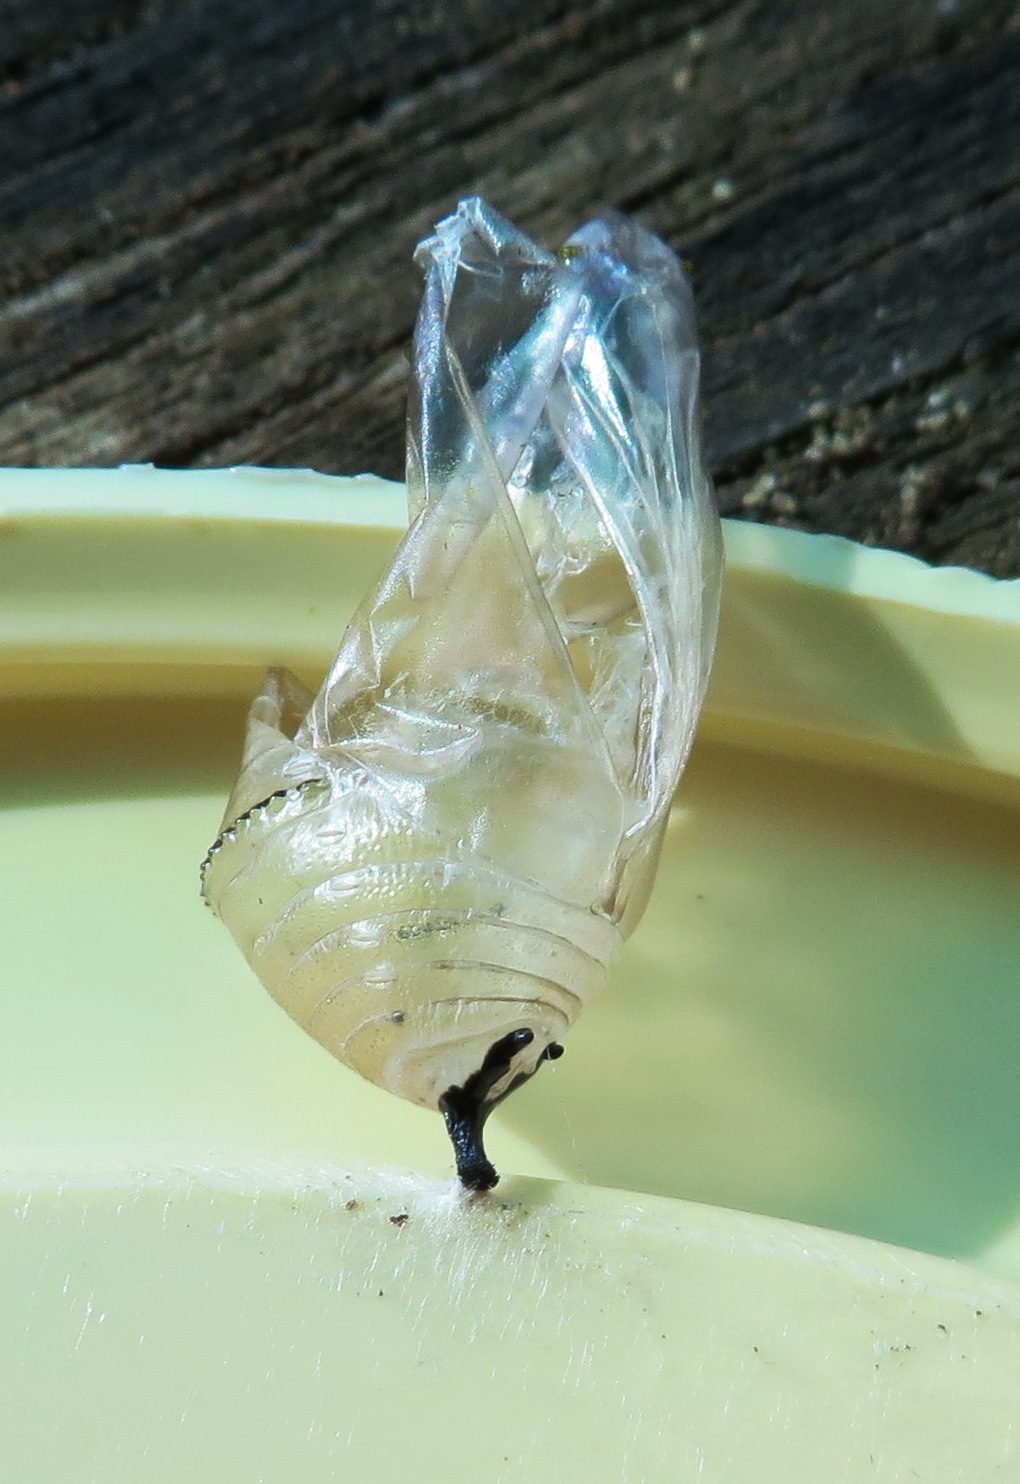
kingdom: Animalia
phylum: Arthropoda
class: Insecta
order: Lepidoptera
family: Nymphalidae
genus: Danaus
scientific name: Danaus chrysippus
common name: Plain tiger
